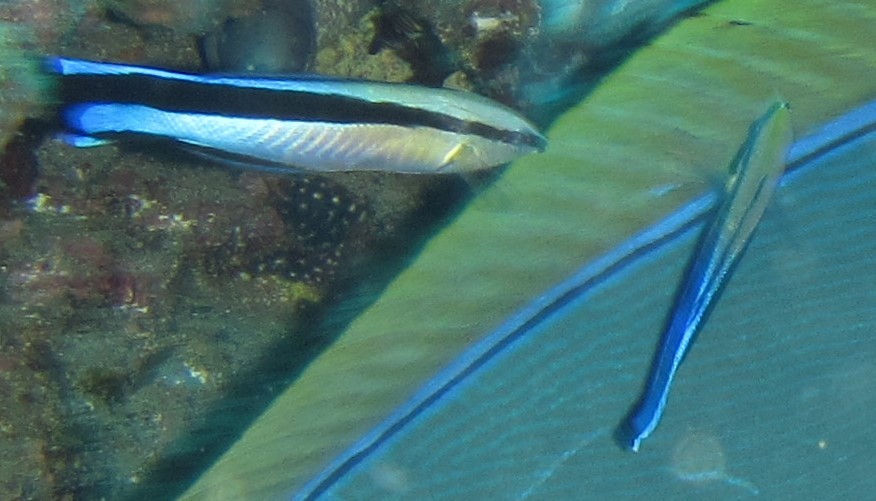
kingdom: Animalia
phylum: Chordata
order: Perciformes
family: Labridae
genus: Labroides
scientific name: Labroides dimidiatus
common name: Blue diesel wrasse
